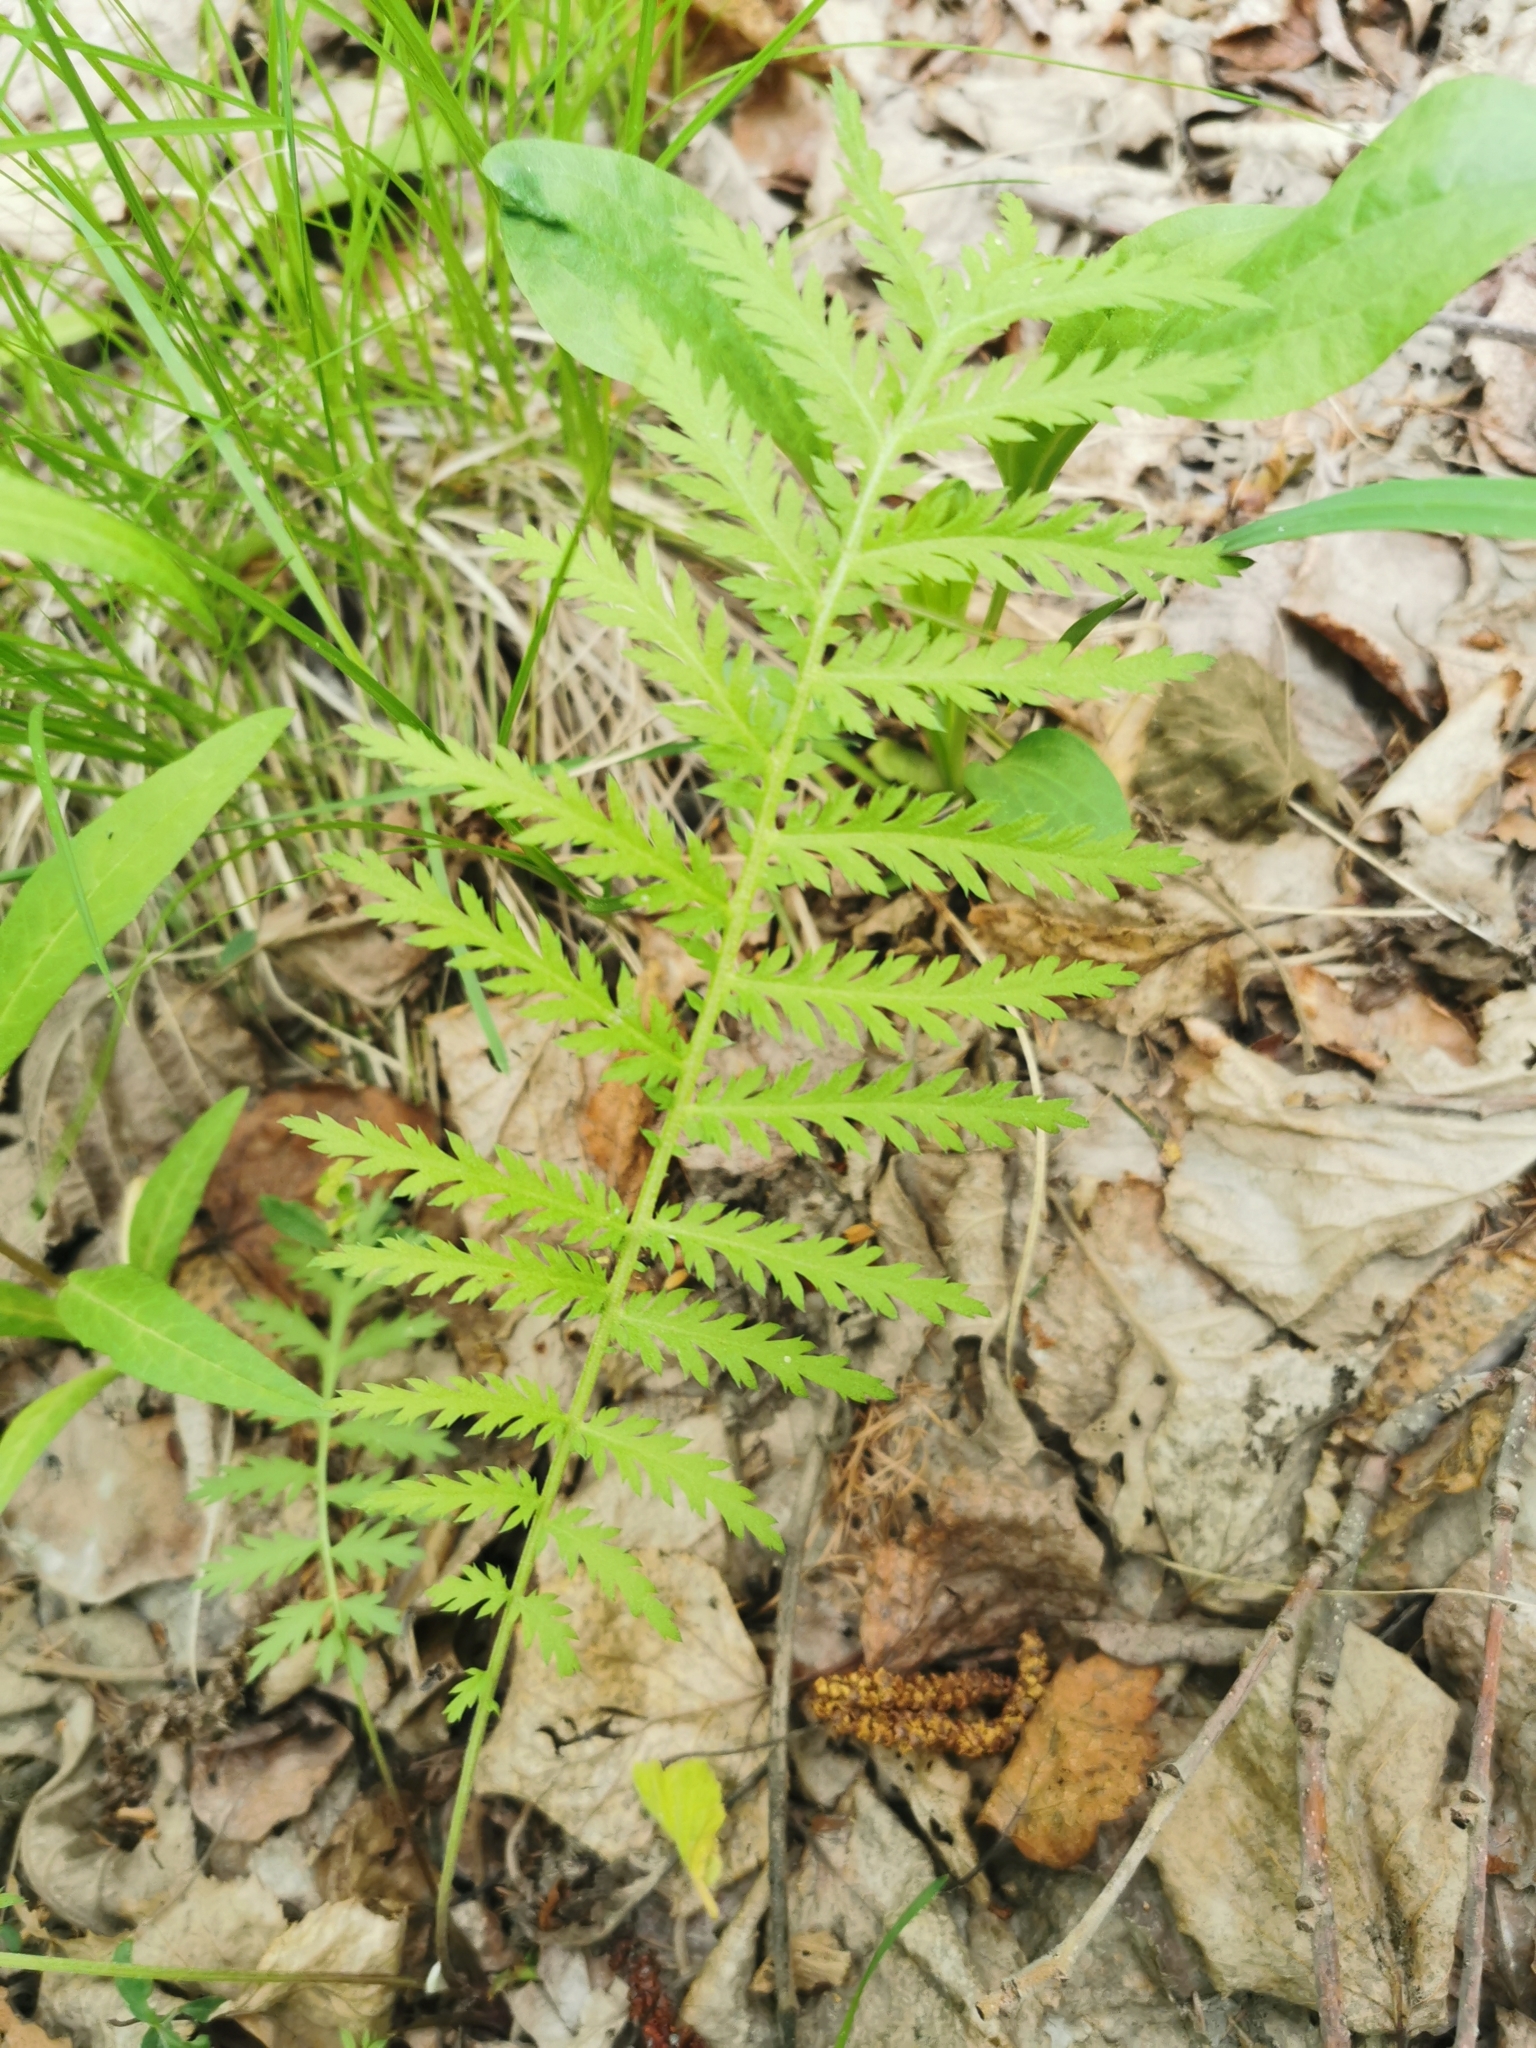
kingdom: Plantae
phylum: Tracheophyta
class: Magnoliopsida
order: Asterales
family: Asteraceae
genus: Tanacetum
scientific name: Tanacetum vulgare
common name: Common tansy
